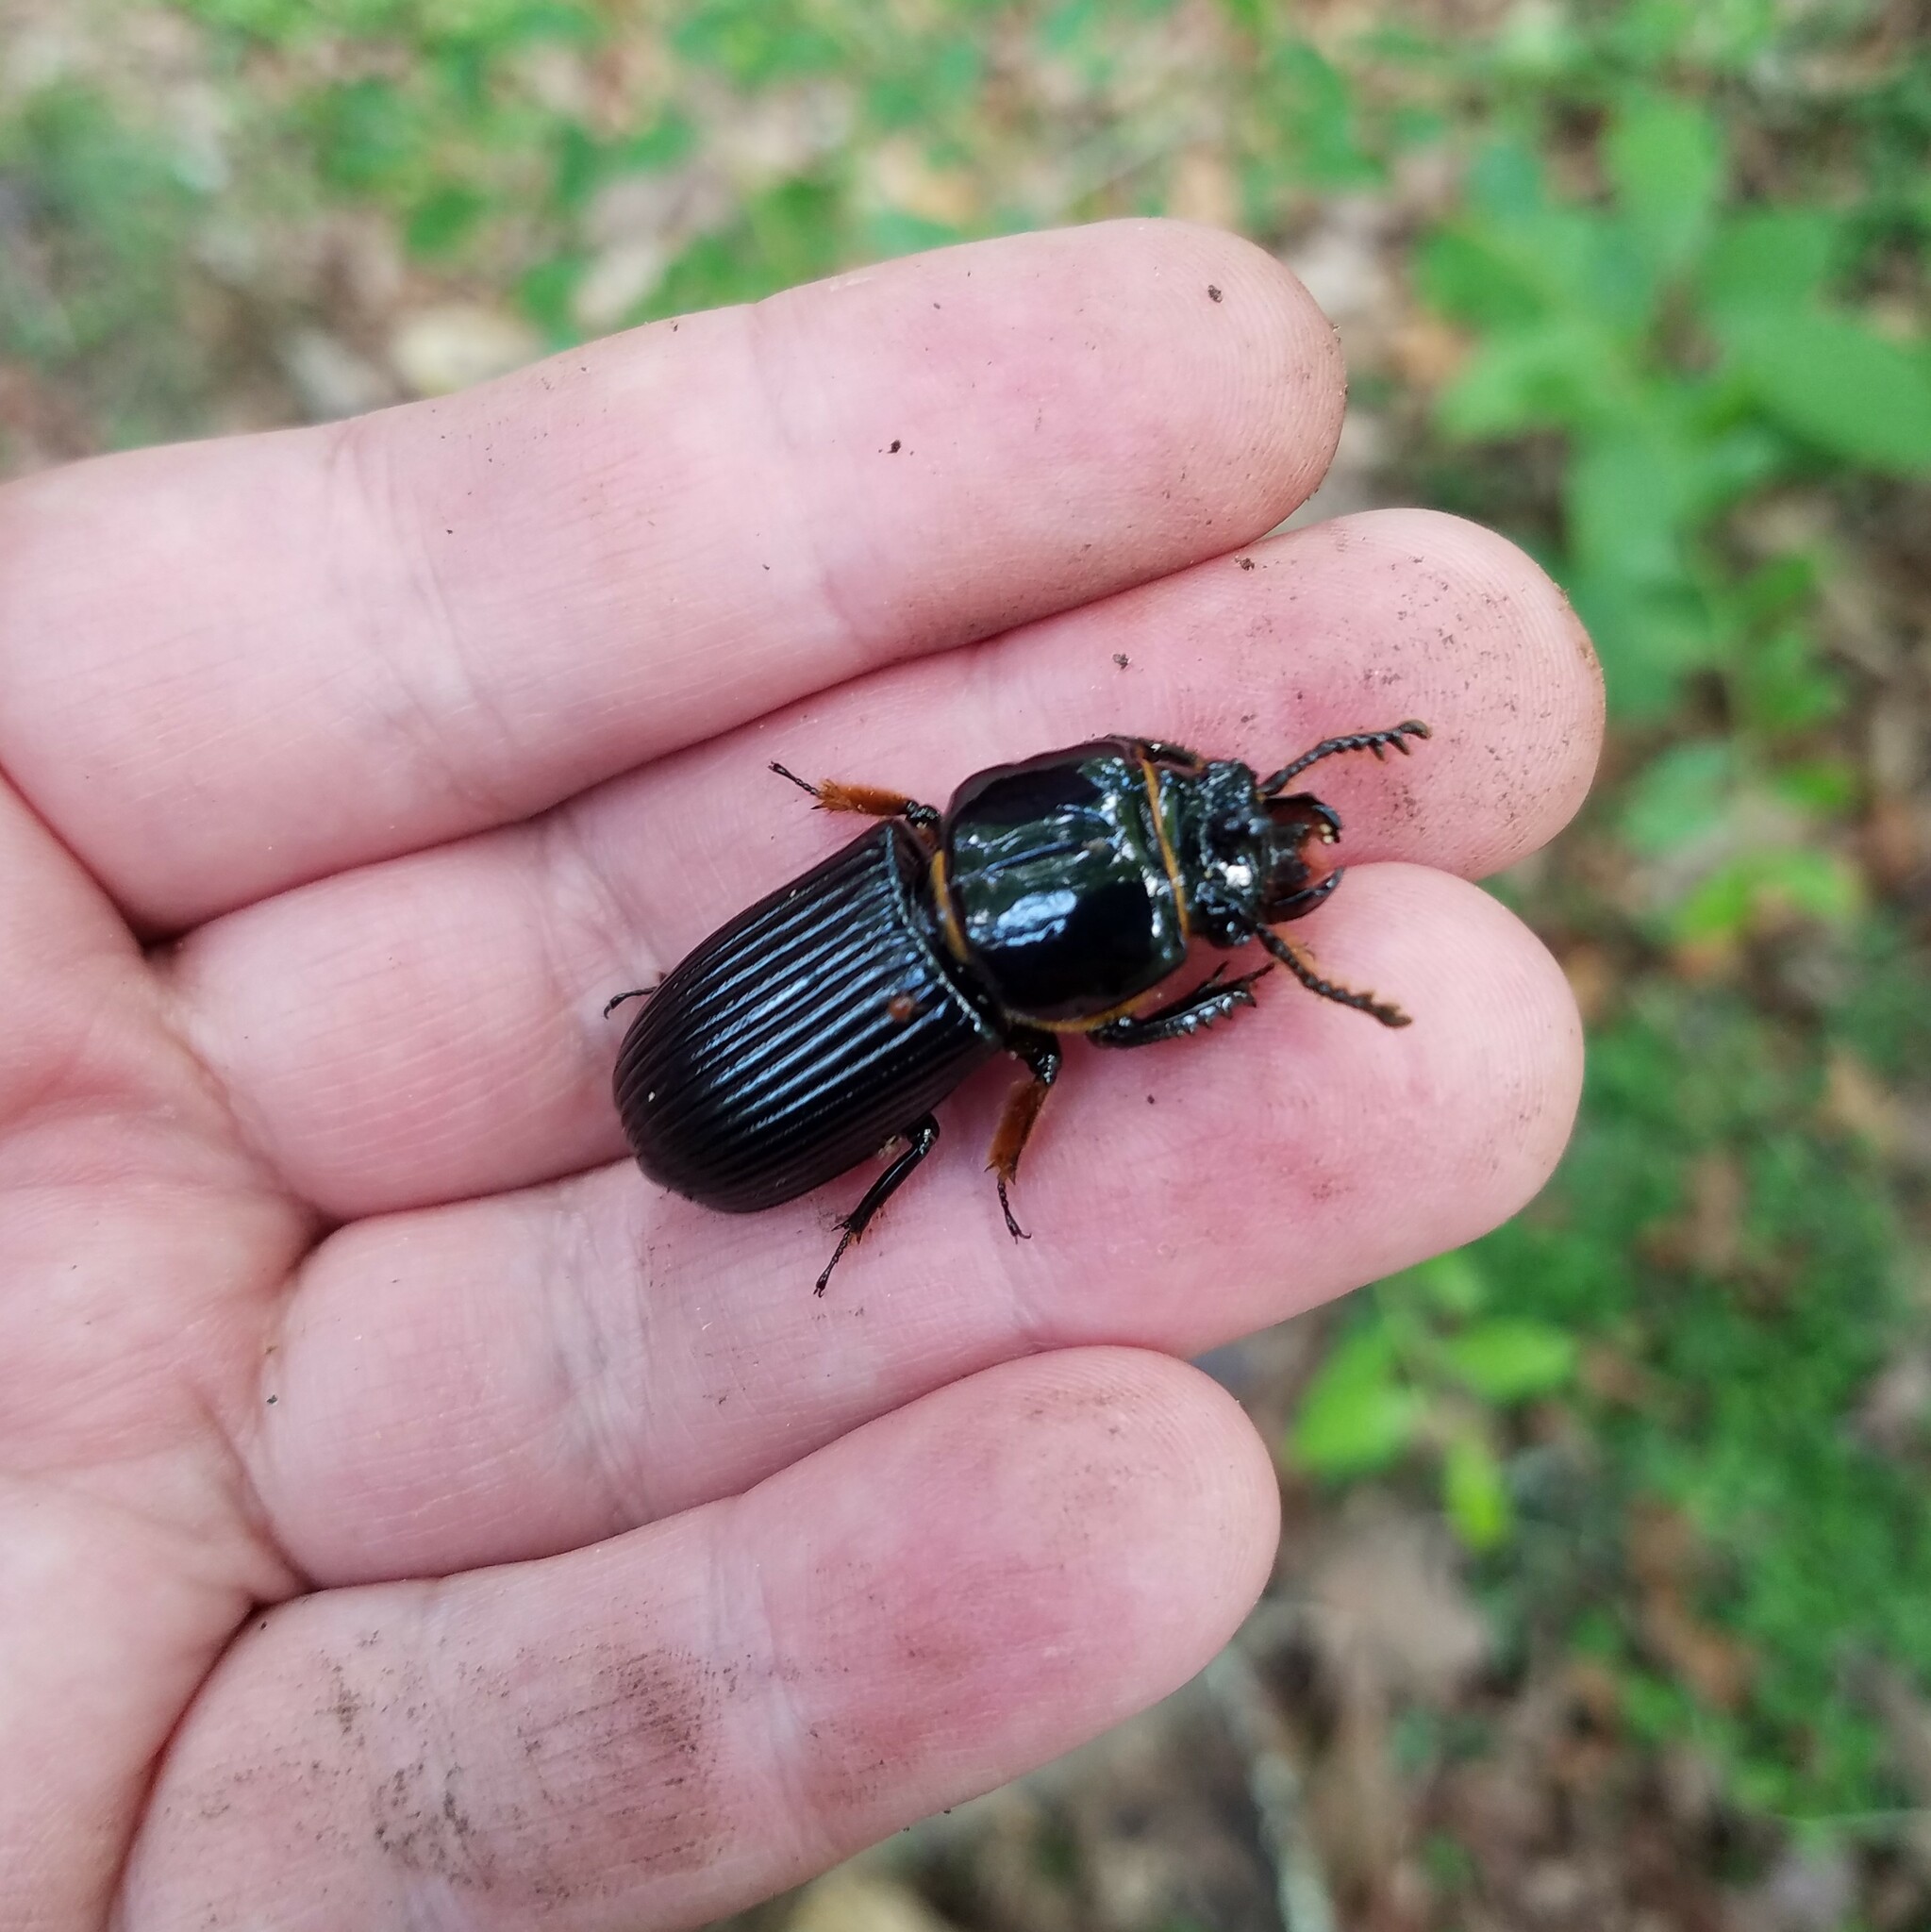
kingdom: Animalia
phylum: Arthropoda
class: Insecta
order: Coleoptera
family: Passalidae
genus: Odontotaenius
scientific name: Odontotaenius disjunctus
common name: Patent leather beetle
